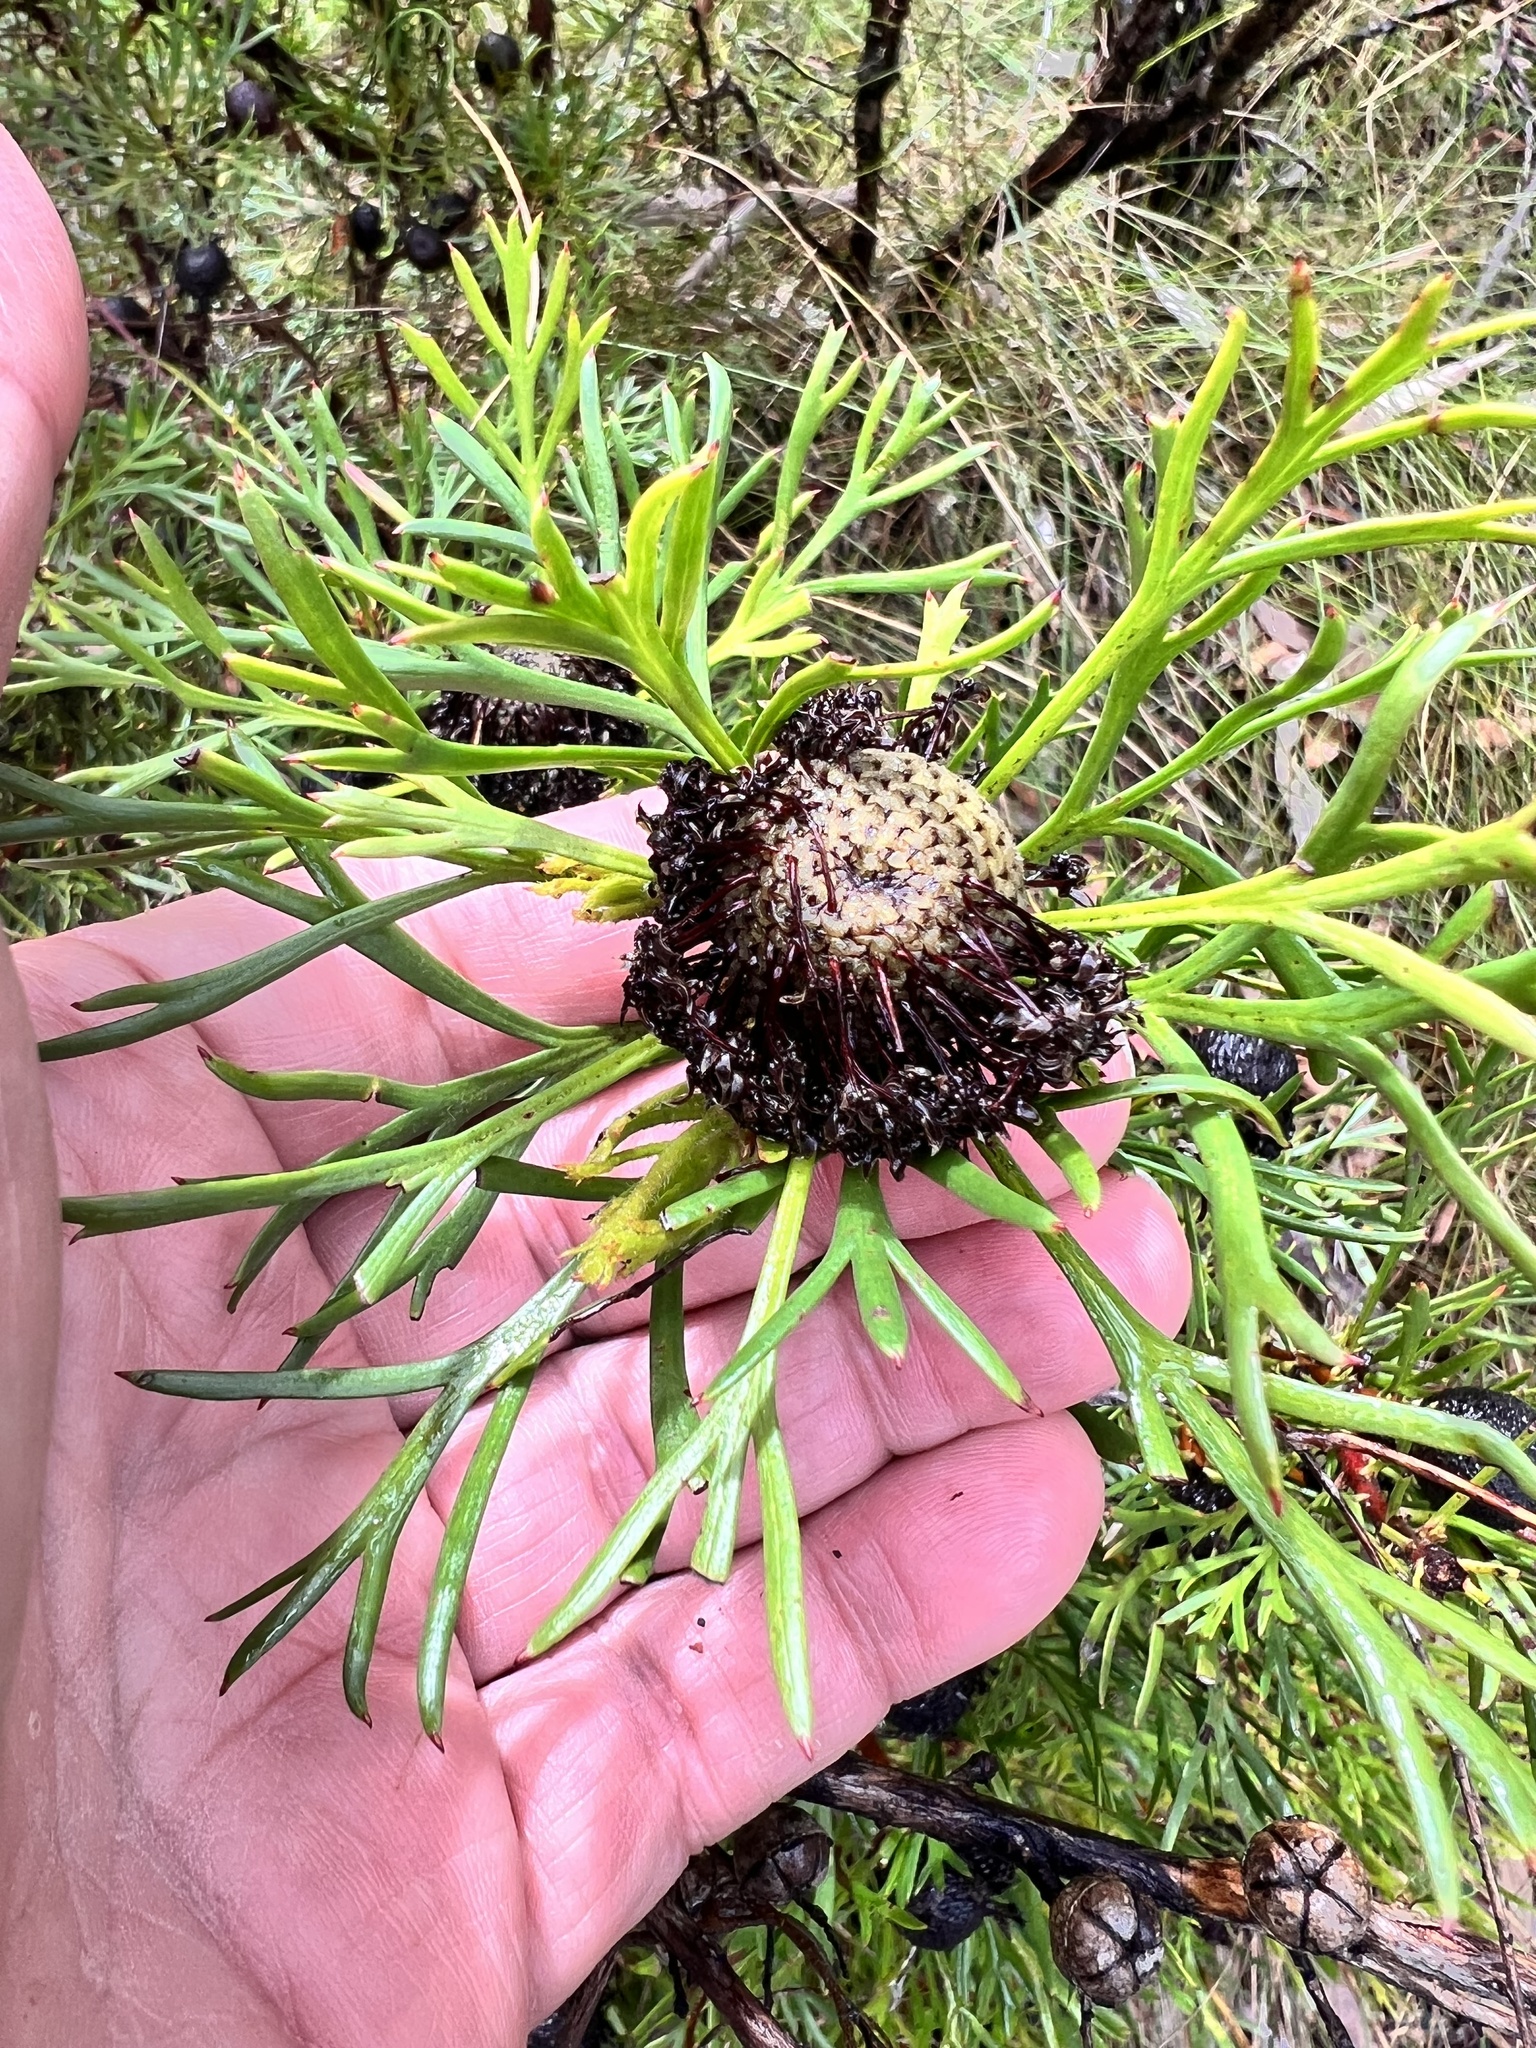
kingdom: Plantae
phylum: Tracheophyta
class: Magnoliopsida
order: Proteales
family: Proteaceae
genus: Isopogon
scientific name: Isopogon anemonifolius
